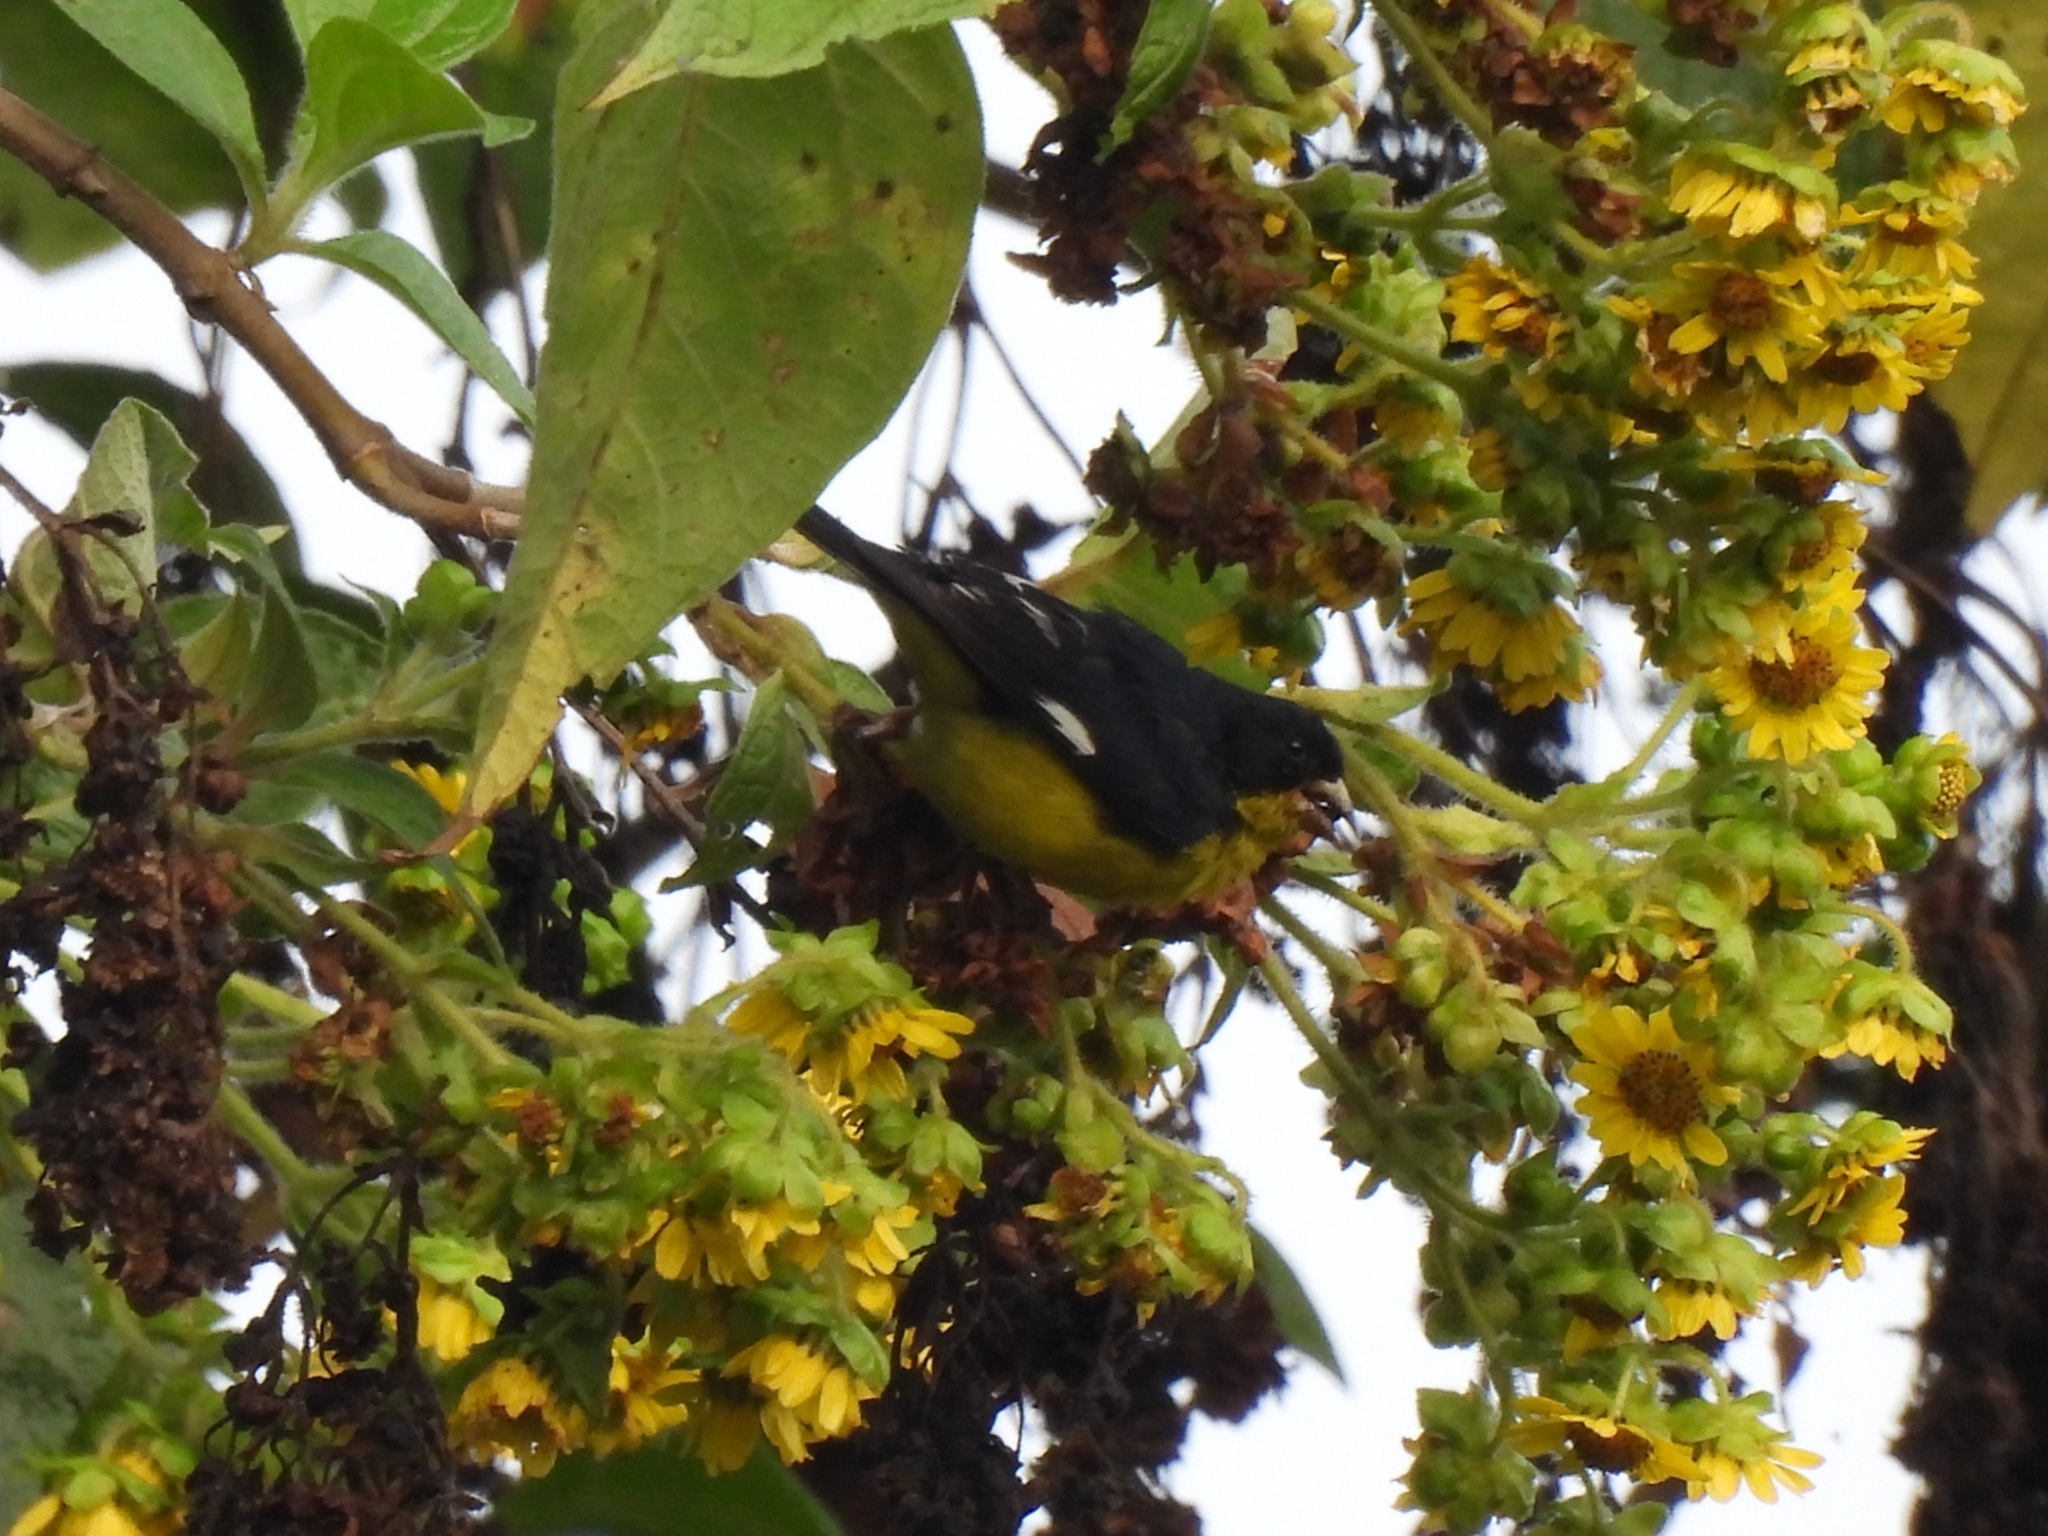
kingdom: Animalia
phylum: Chordata
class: Aves
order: Passeriformes
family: Fringillidae
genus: Spinus
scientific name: Spinus psaltria
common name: Lesser goldfinch
